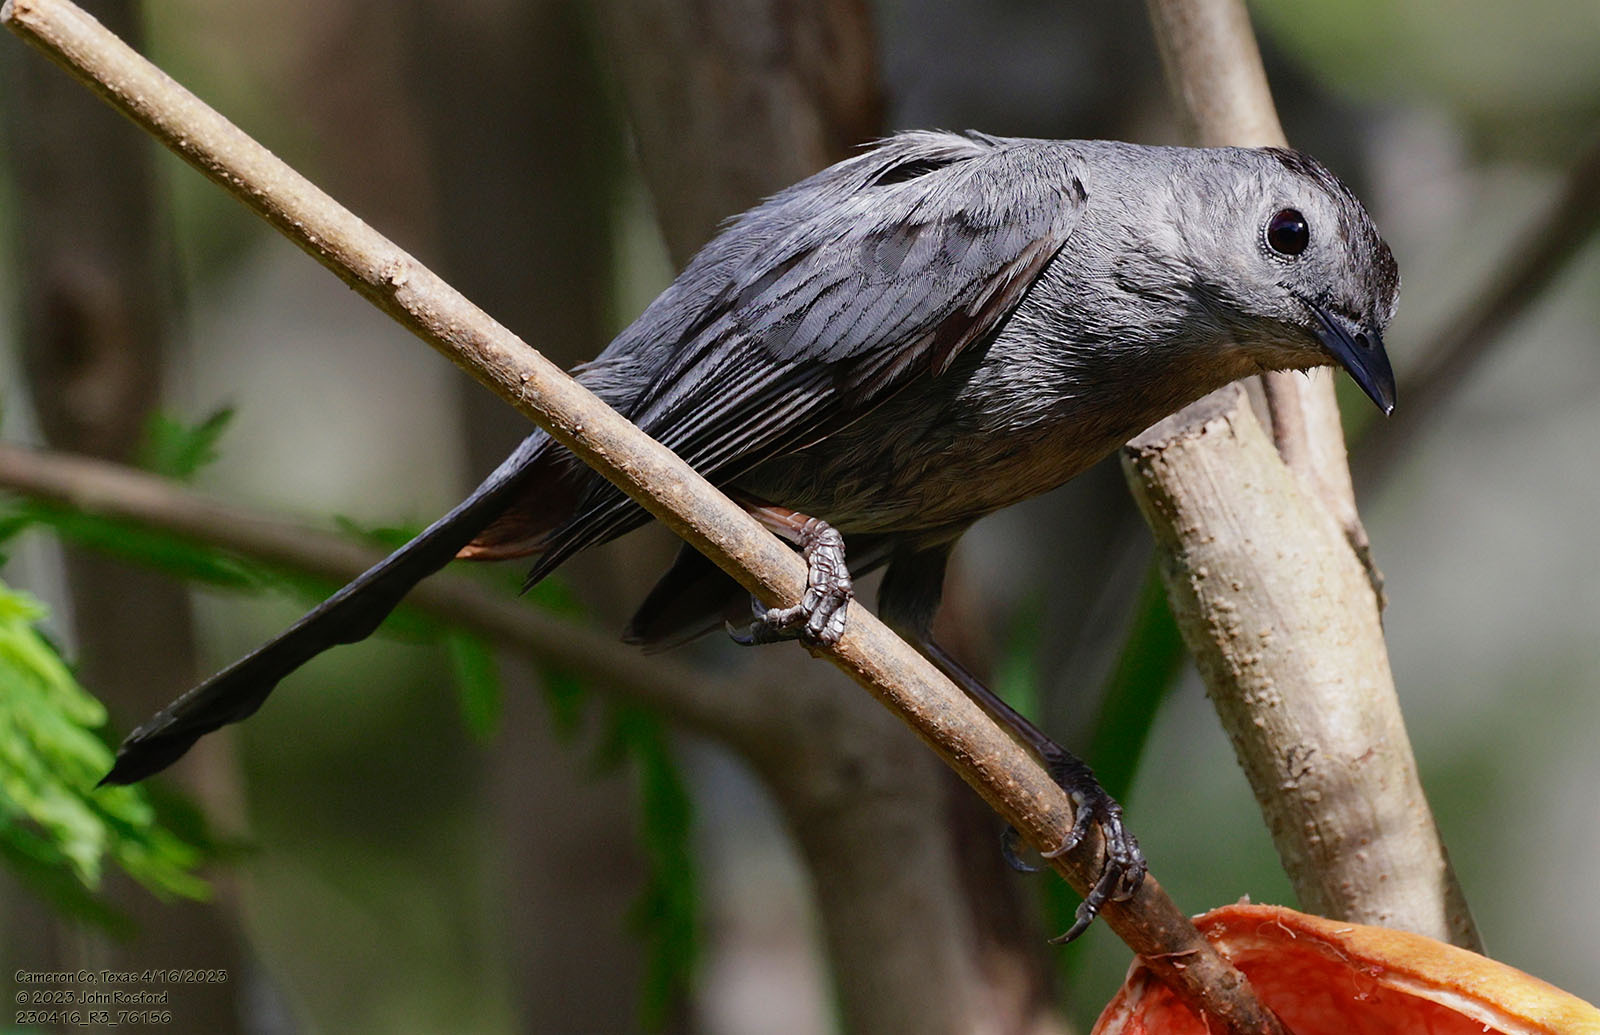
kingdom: Animalia
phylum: Chordata
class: Aves
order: Passeriformes
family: Mimidae
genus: Dumetella
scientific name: Dumetella carolinensis
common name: Gray catbird
